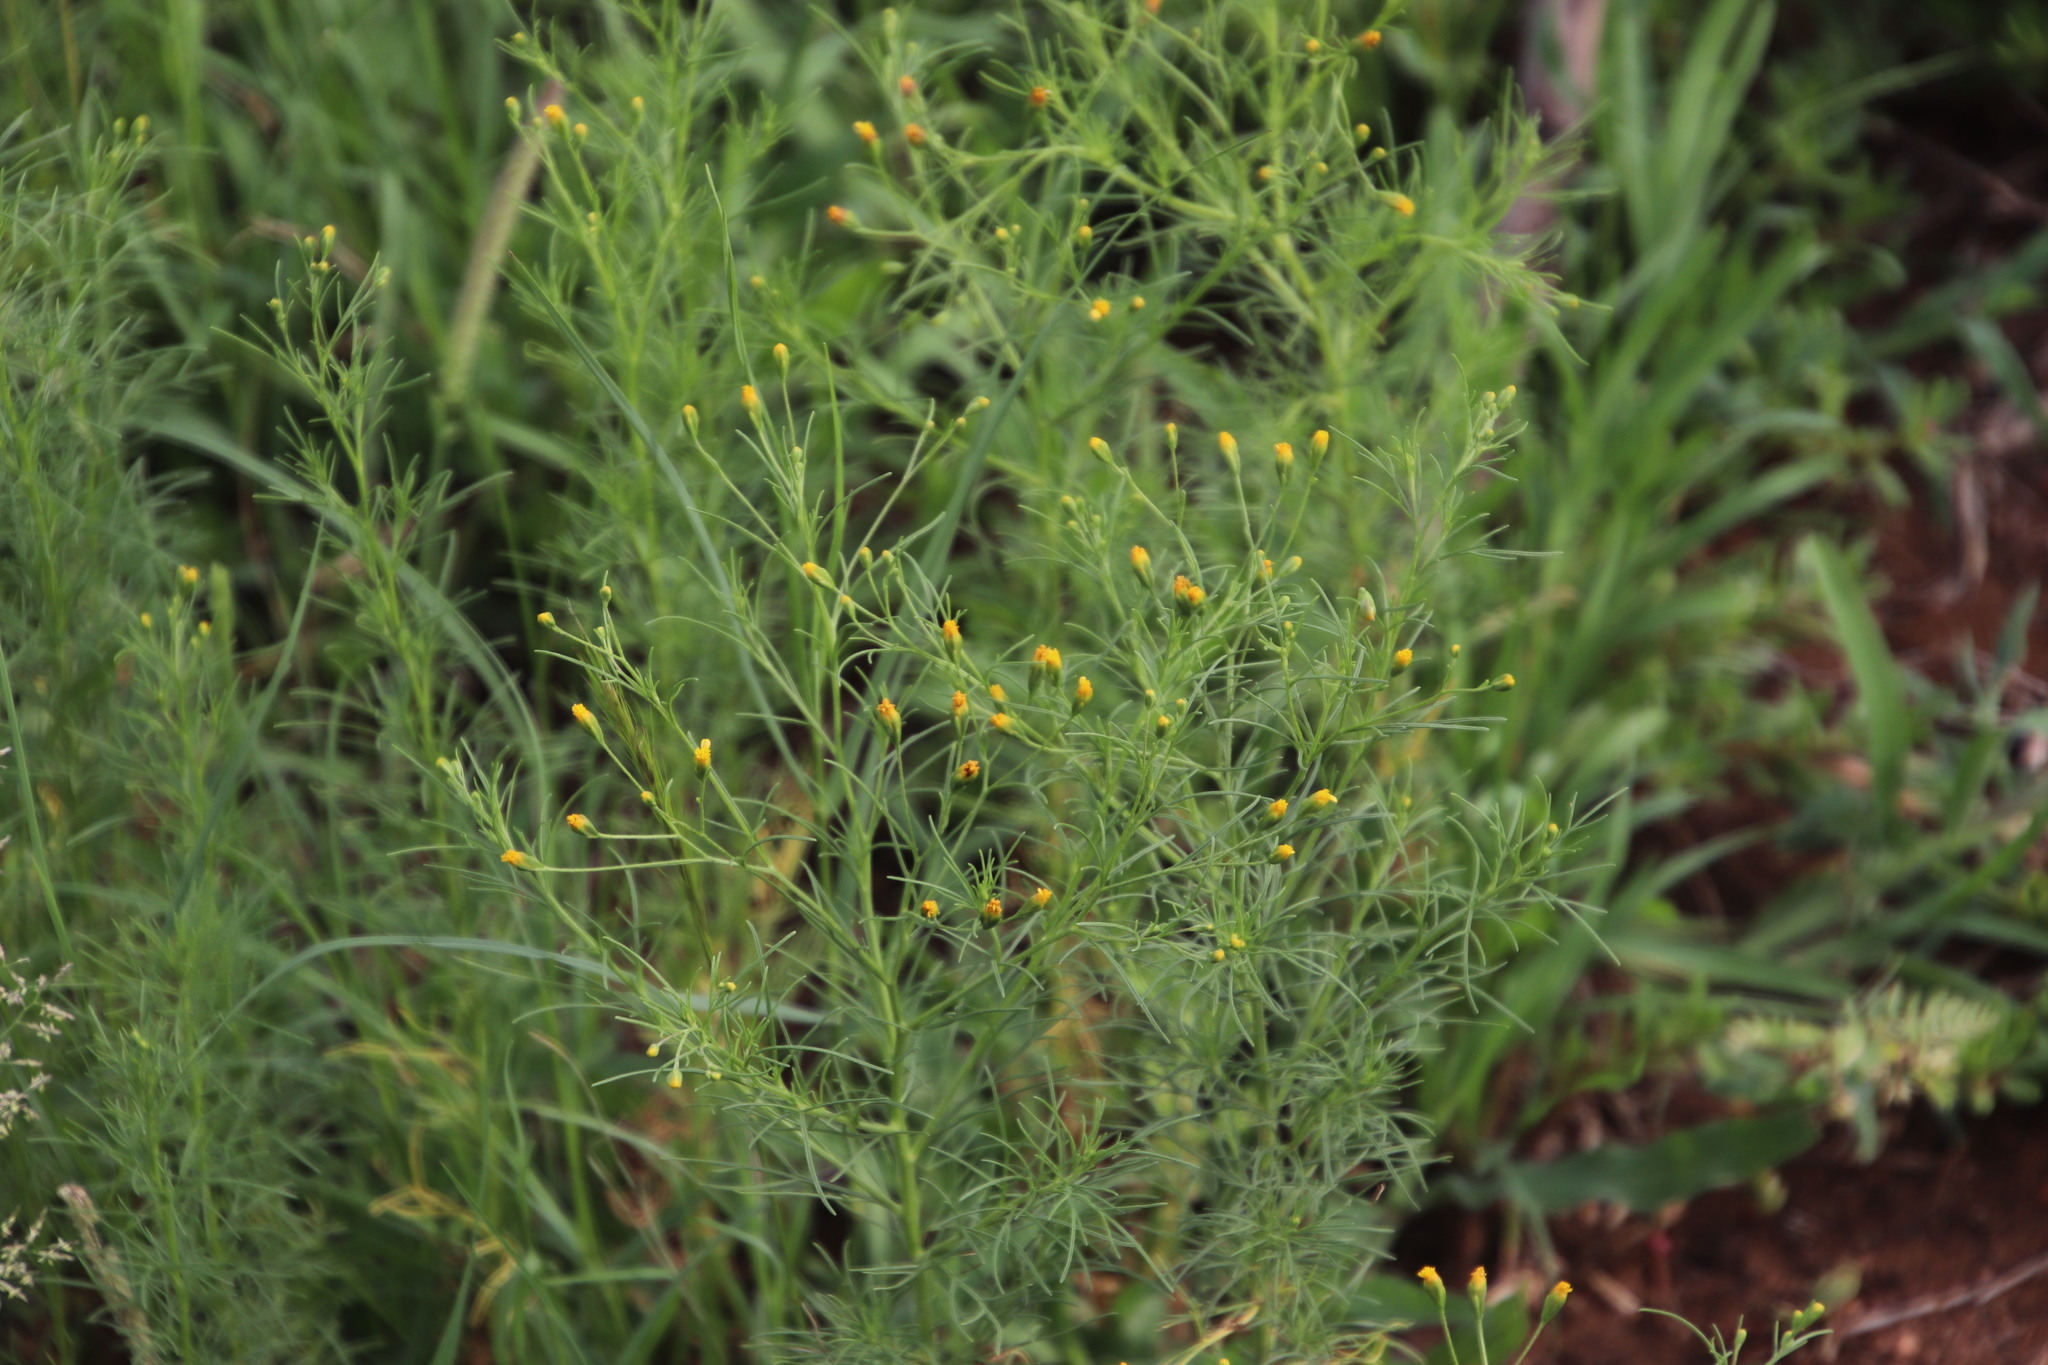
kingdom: Plantae
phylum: Tracheophyta
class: Magnoliopsida
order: Asterales
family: Asteraceae
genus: Schkuhria
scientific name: Schkuhria pinnata
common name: Dwarf marigold
